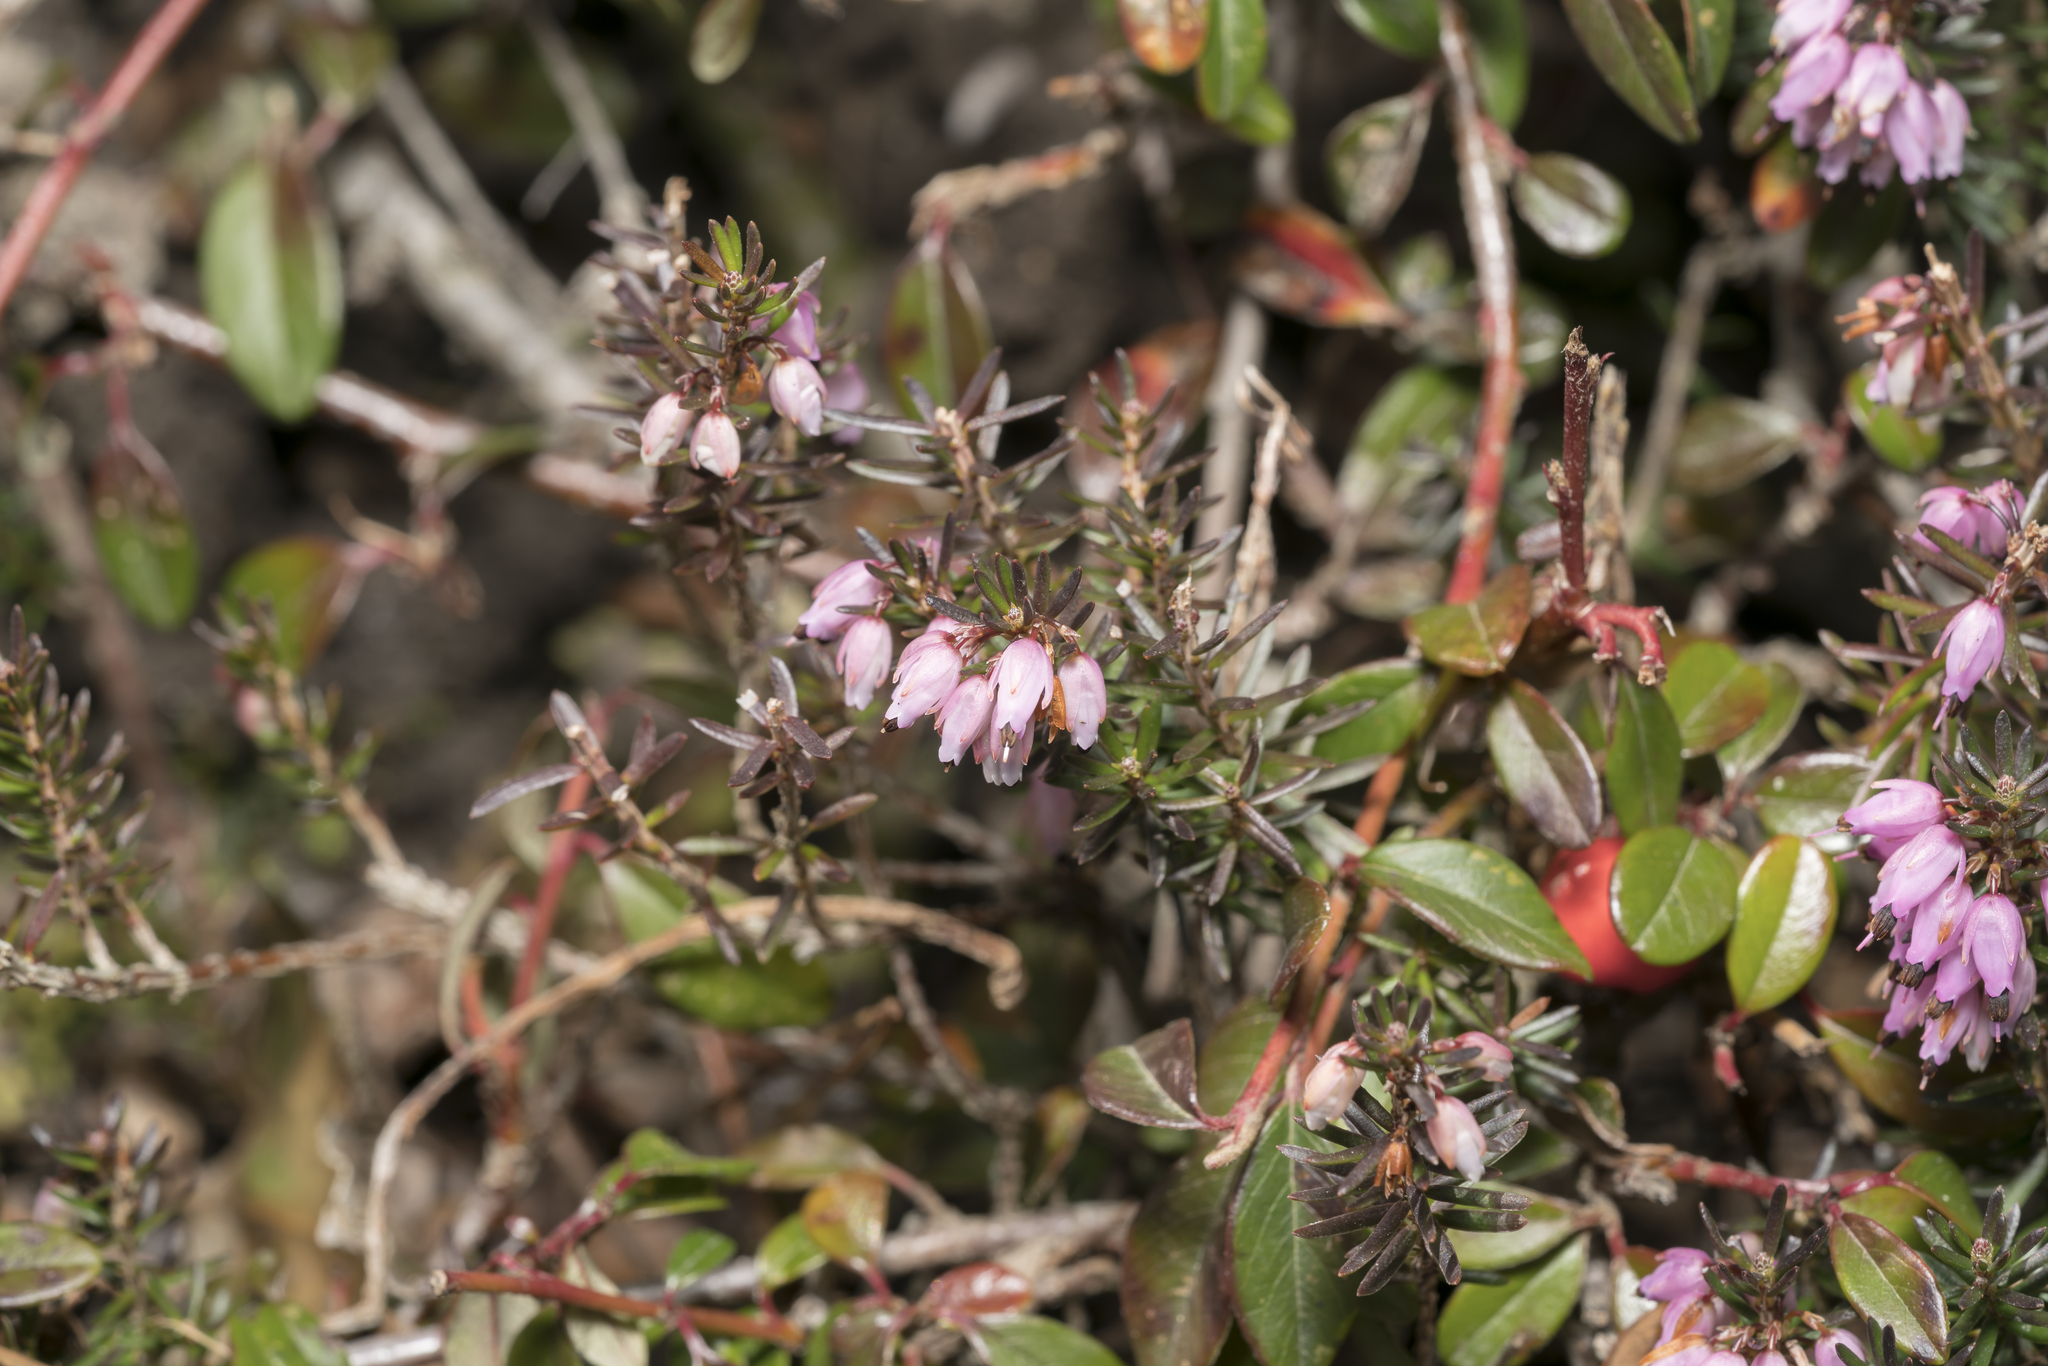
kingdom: Plantae
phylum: Tracheophyta
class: Magnoliopsida
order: Ericales
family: Ericaceae
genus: Erica
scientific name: Erica carnea
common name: Winter heath
